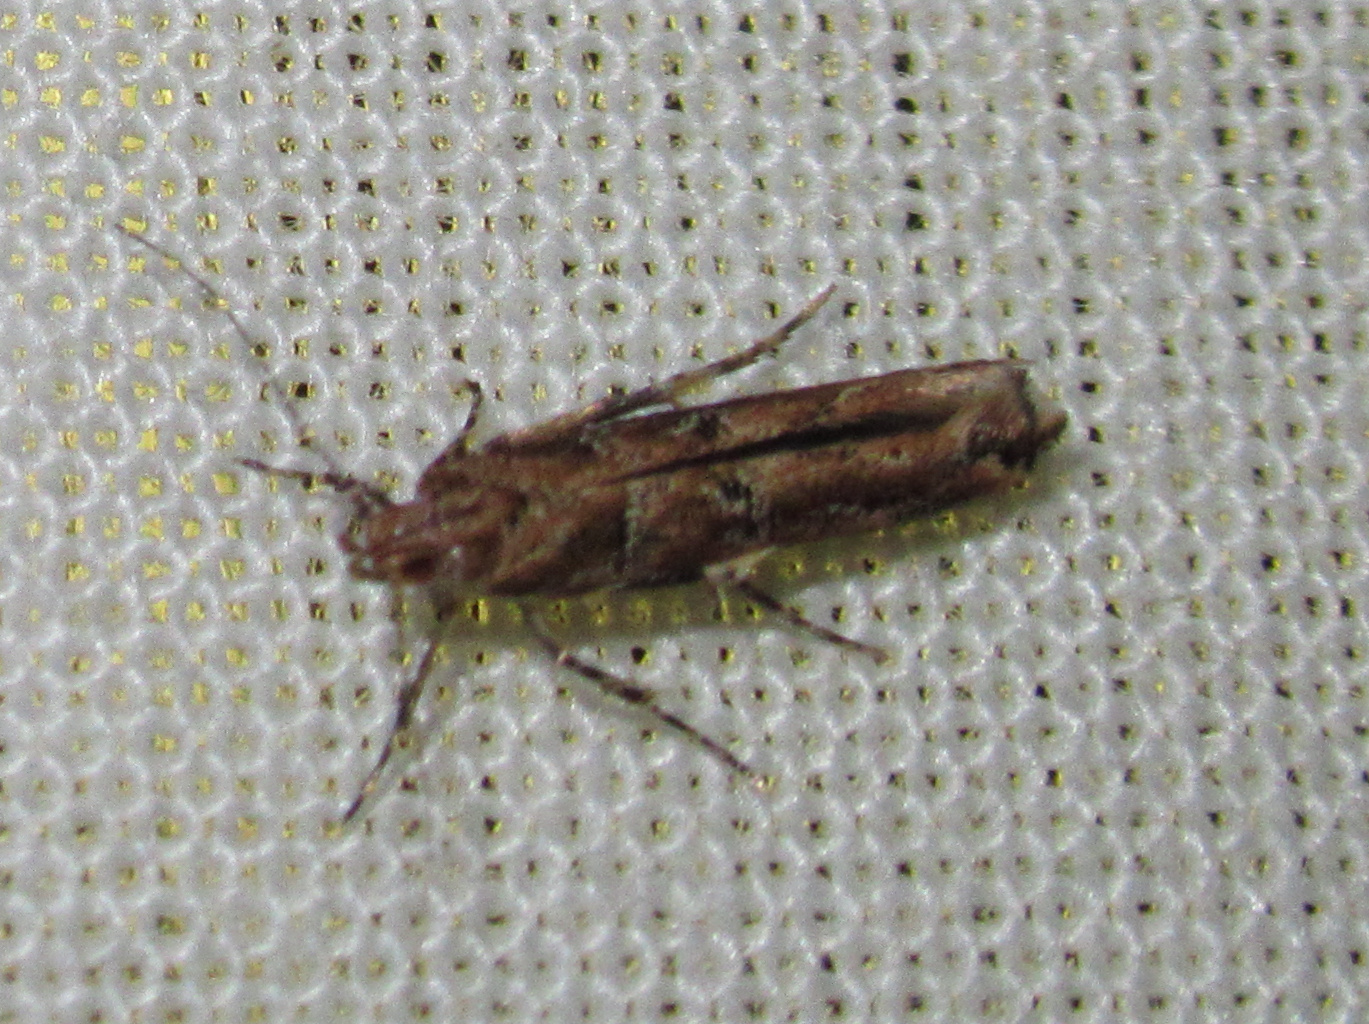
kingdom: Animalia
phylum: Arthropoda
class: Insecta
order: Lepidoptera
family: Cosmopterigidae
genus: Pyroderces
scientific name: Pyroderces aellotricha
